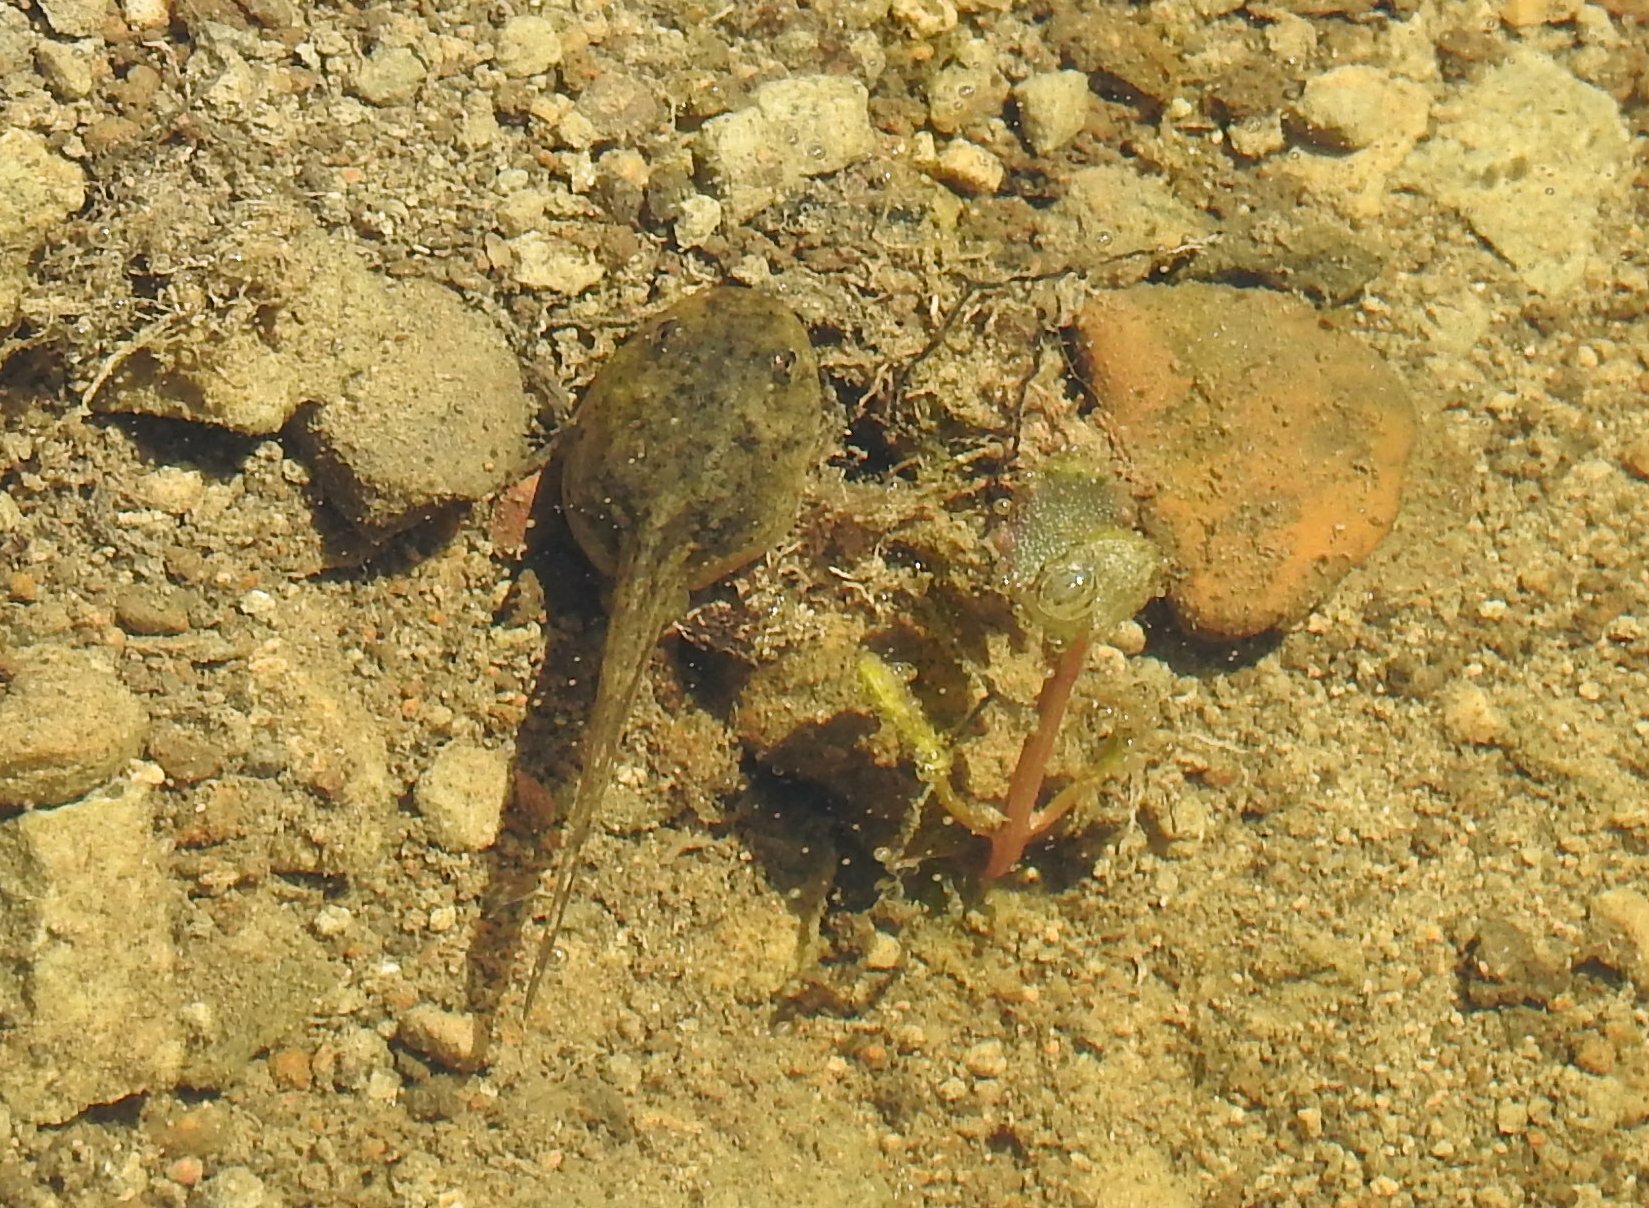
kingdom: Animalia
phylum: Chordata
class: Amphibia
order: Anura
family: Ranidae
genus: Rana
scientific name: Rana amurensis
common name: Amur brown frog
